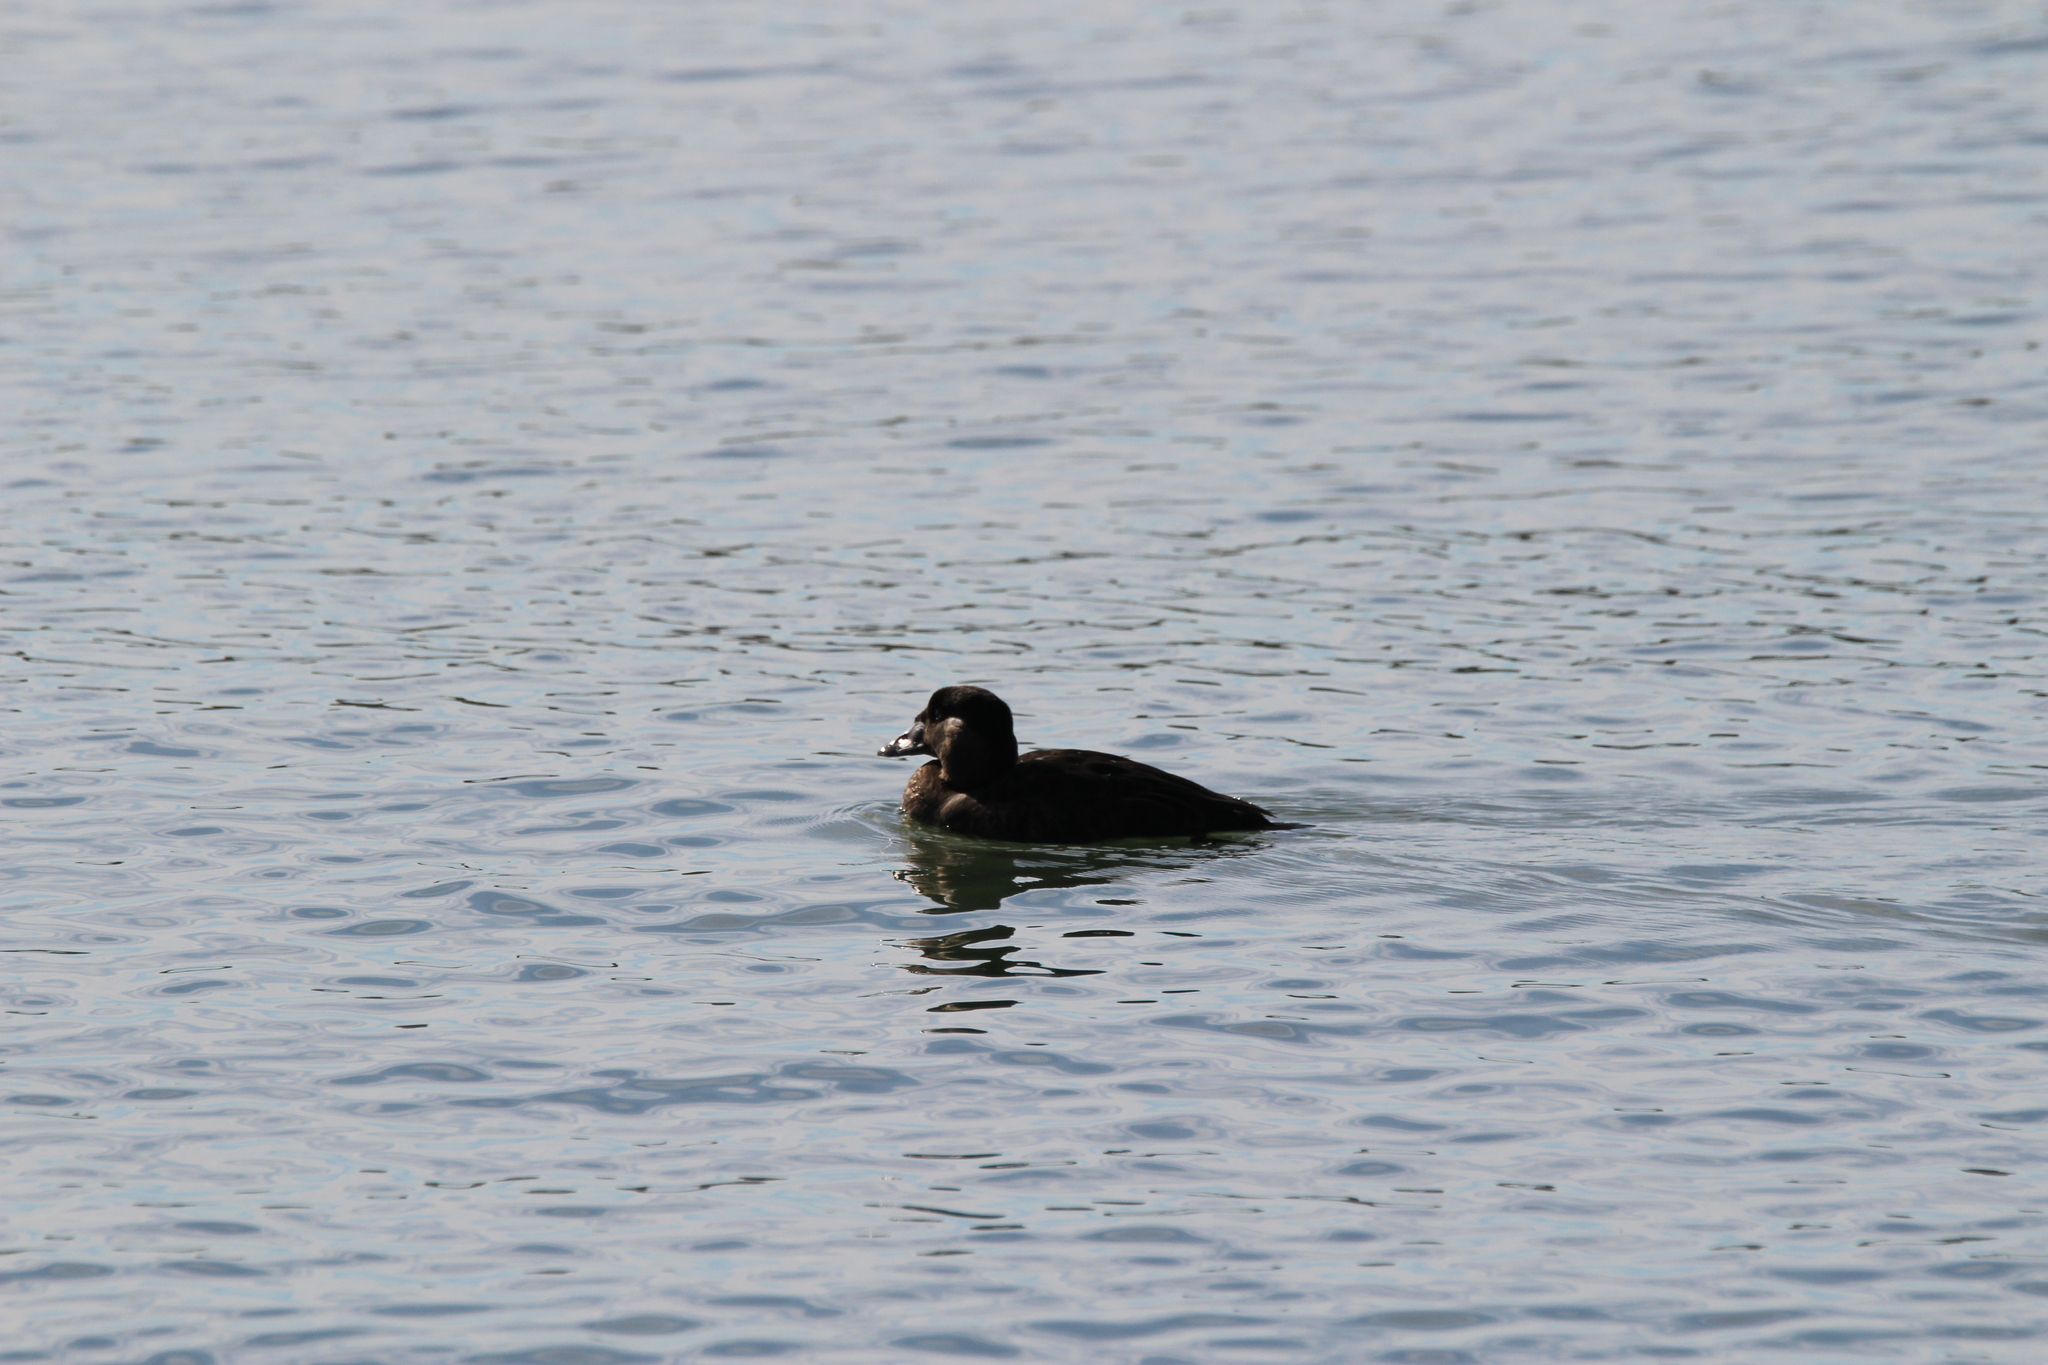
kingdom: Animalia
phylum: Chordata
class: Aves
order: Anseriformes
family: Anatidae
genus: Melanitta
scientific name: Melanitta perspicillata
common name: Surf scoter
